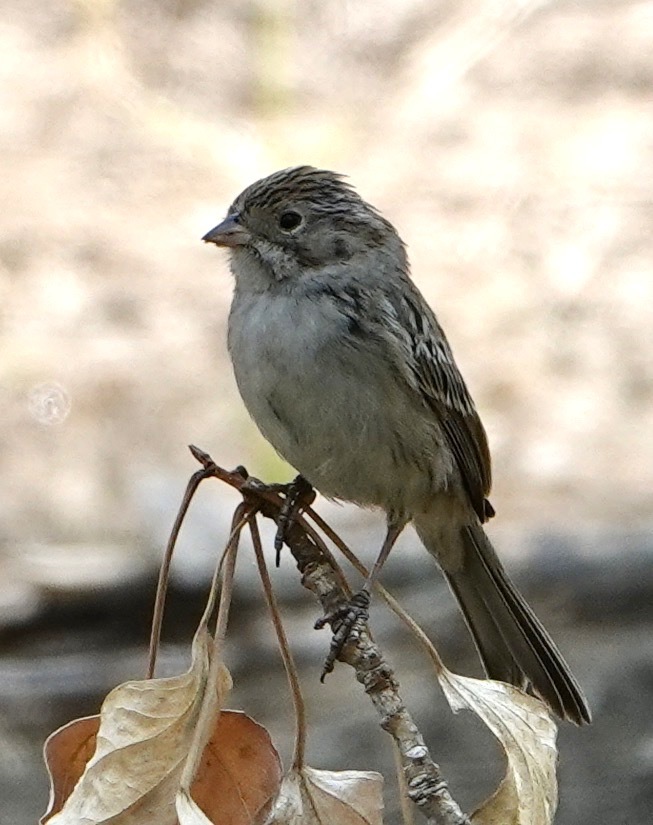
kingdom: Animalia
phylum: Chordata
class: Aves
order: Passeriformes
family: Passerellidae
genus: Spizella
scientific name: Spizella breweri
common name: Brewer's sparrow
